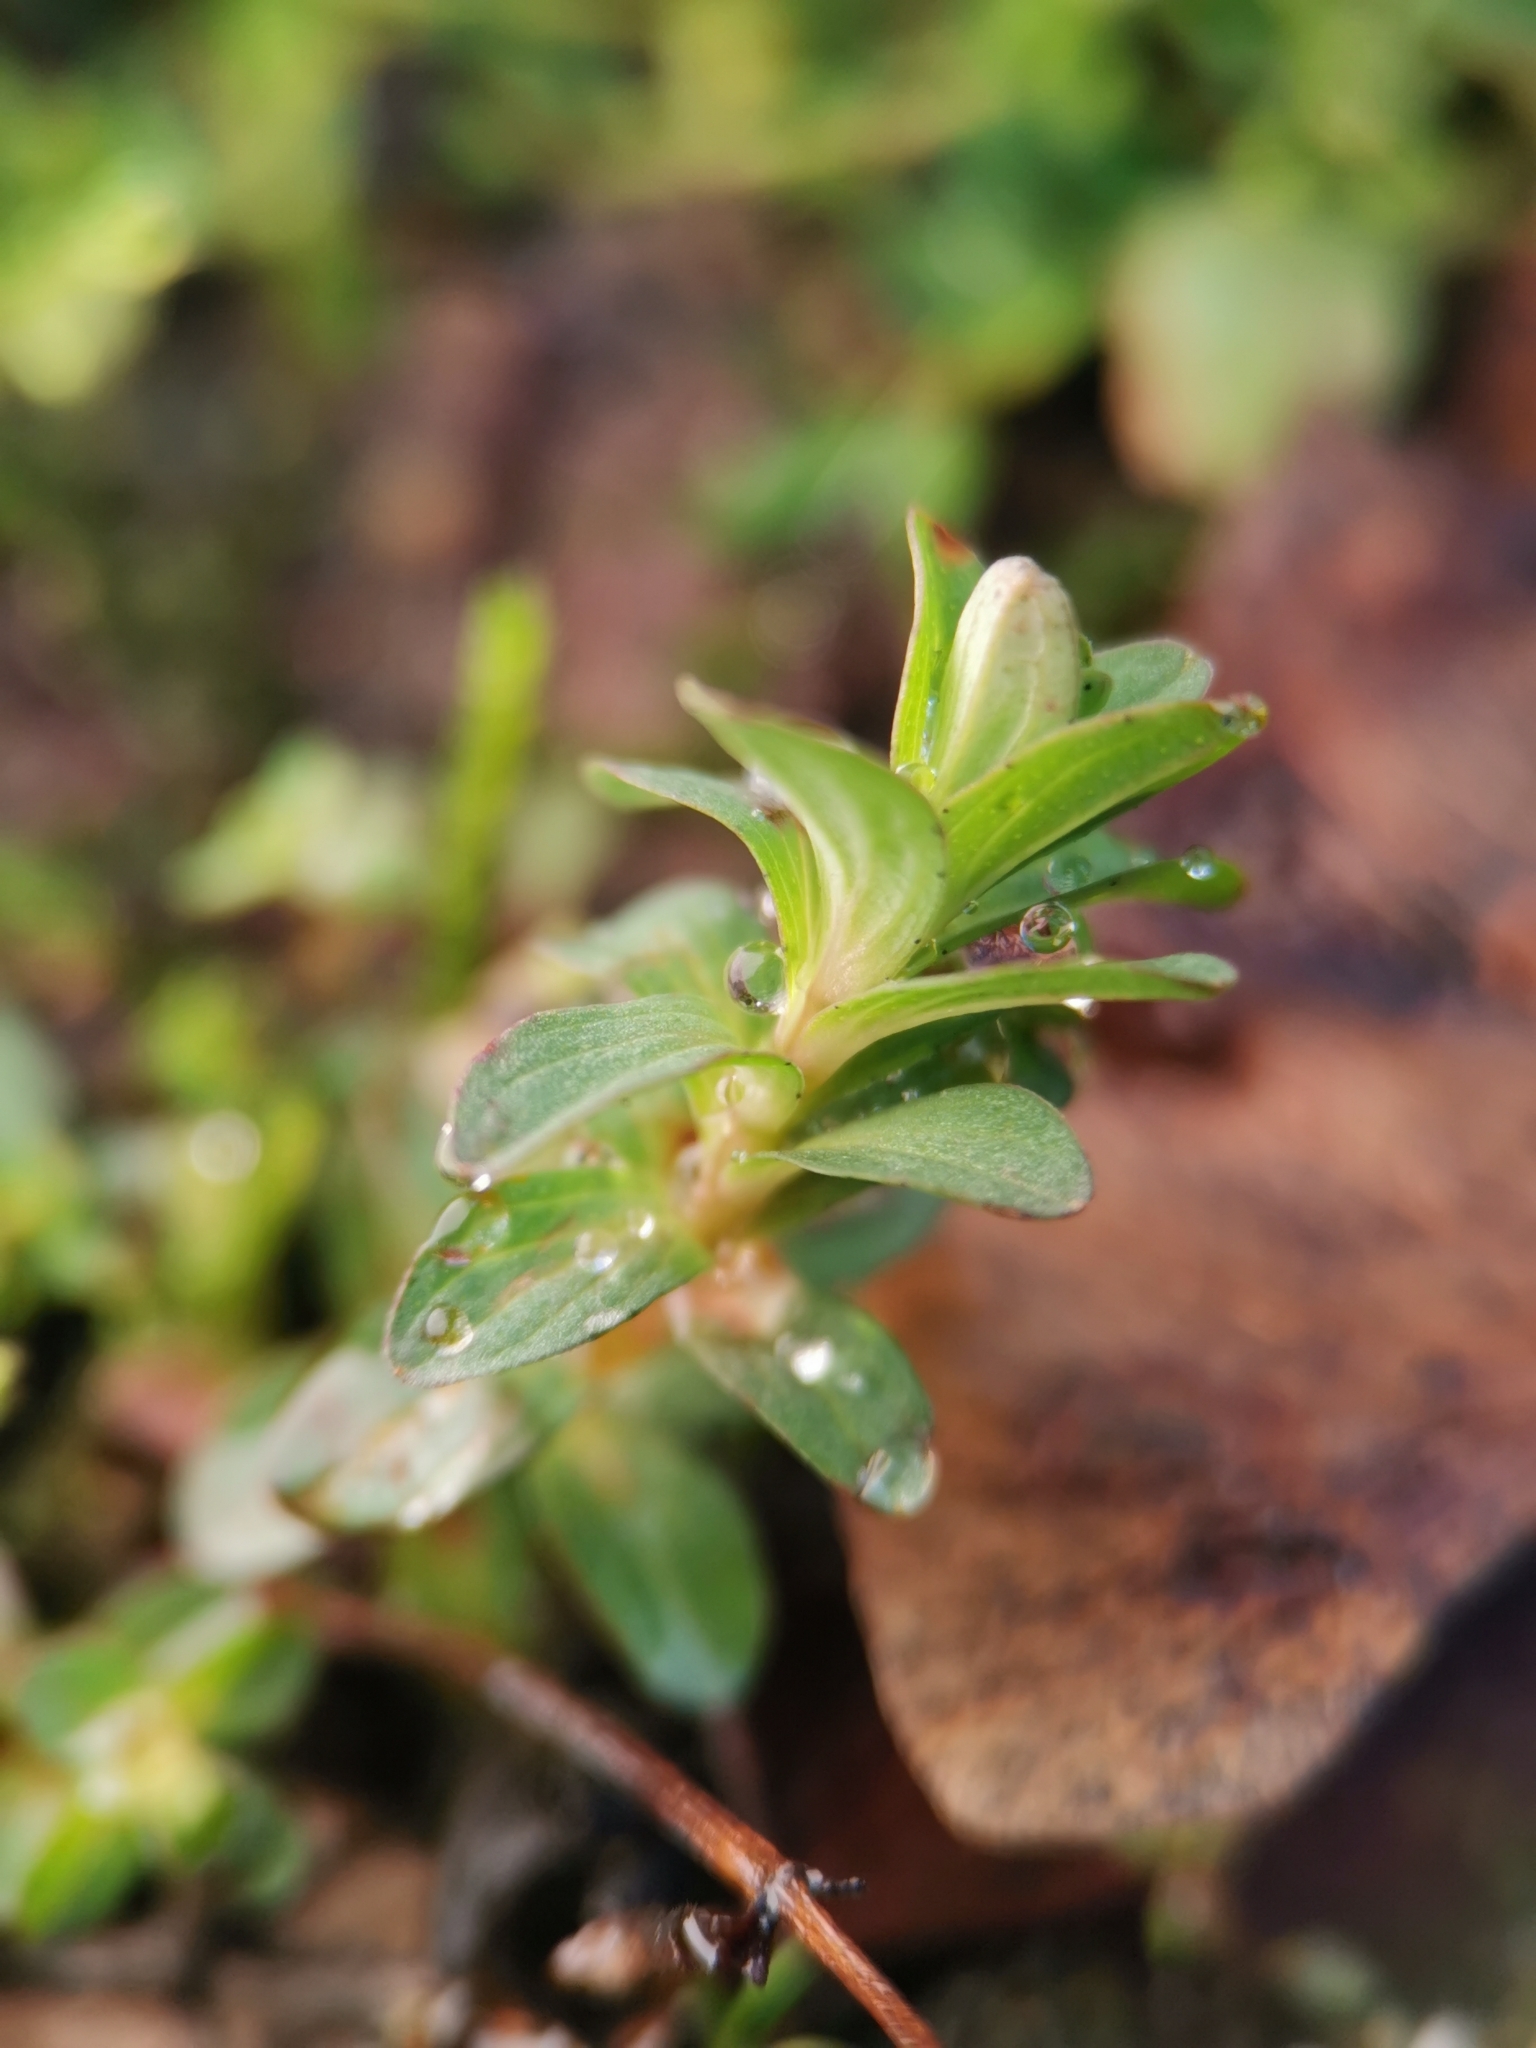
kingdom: Plantae
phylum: Tracheophyta
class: Magnoliopsida
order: Malpighiales
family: Hypericaceae
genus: Hypericum
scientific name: Hypericum perforatum
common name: Common st. johnswort
